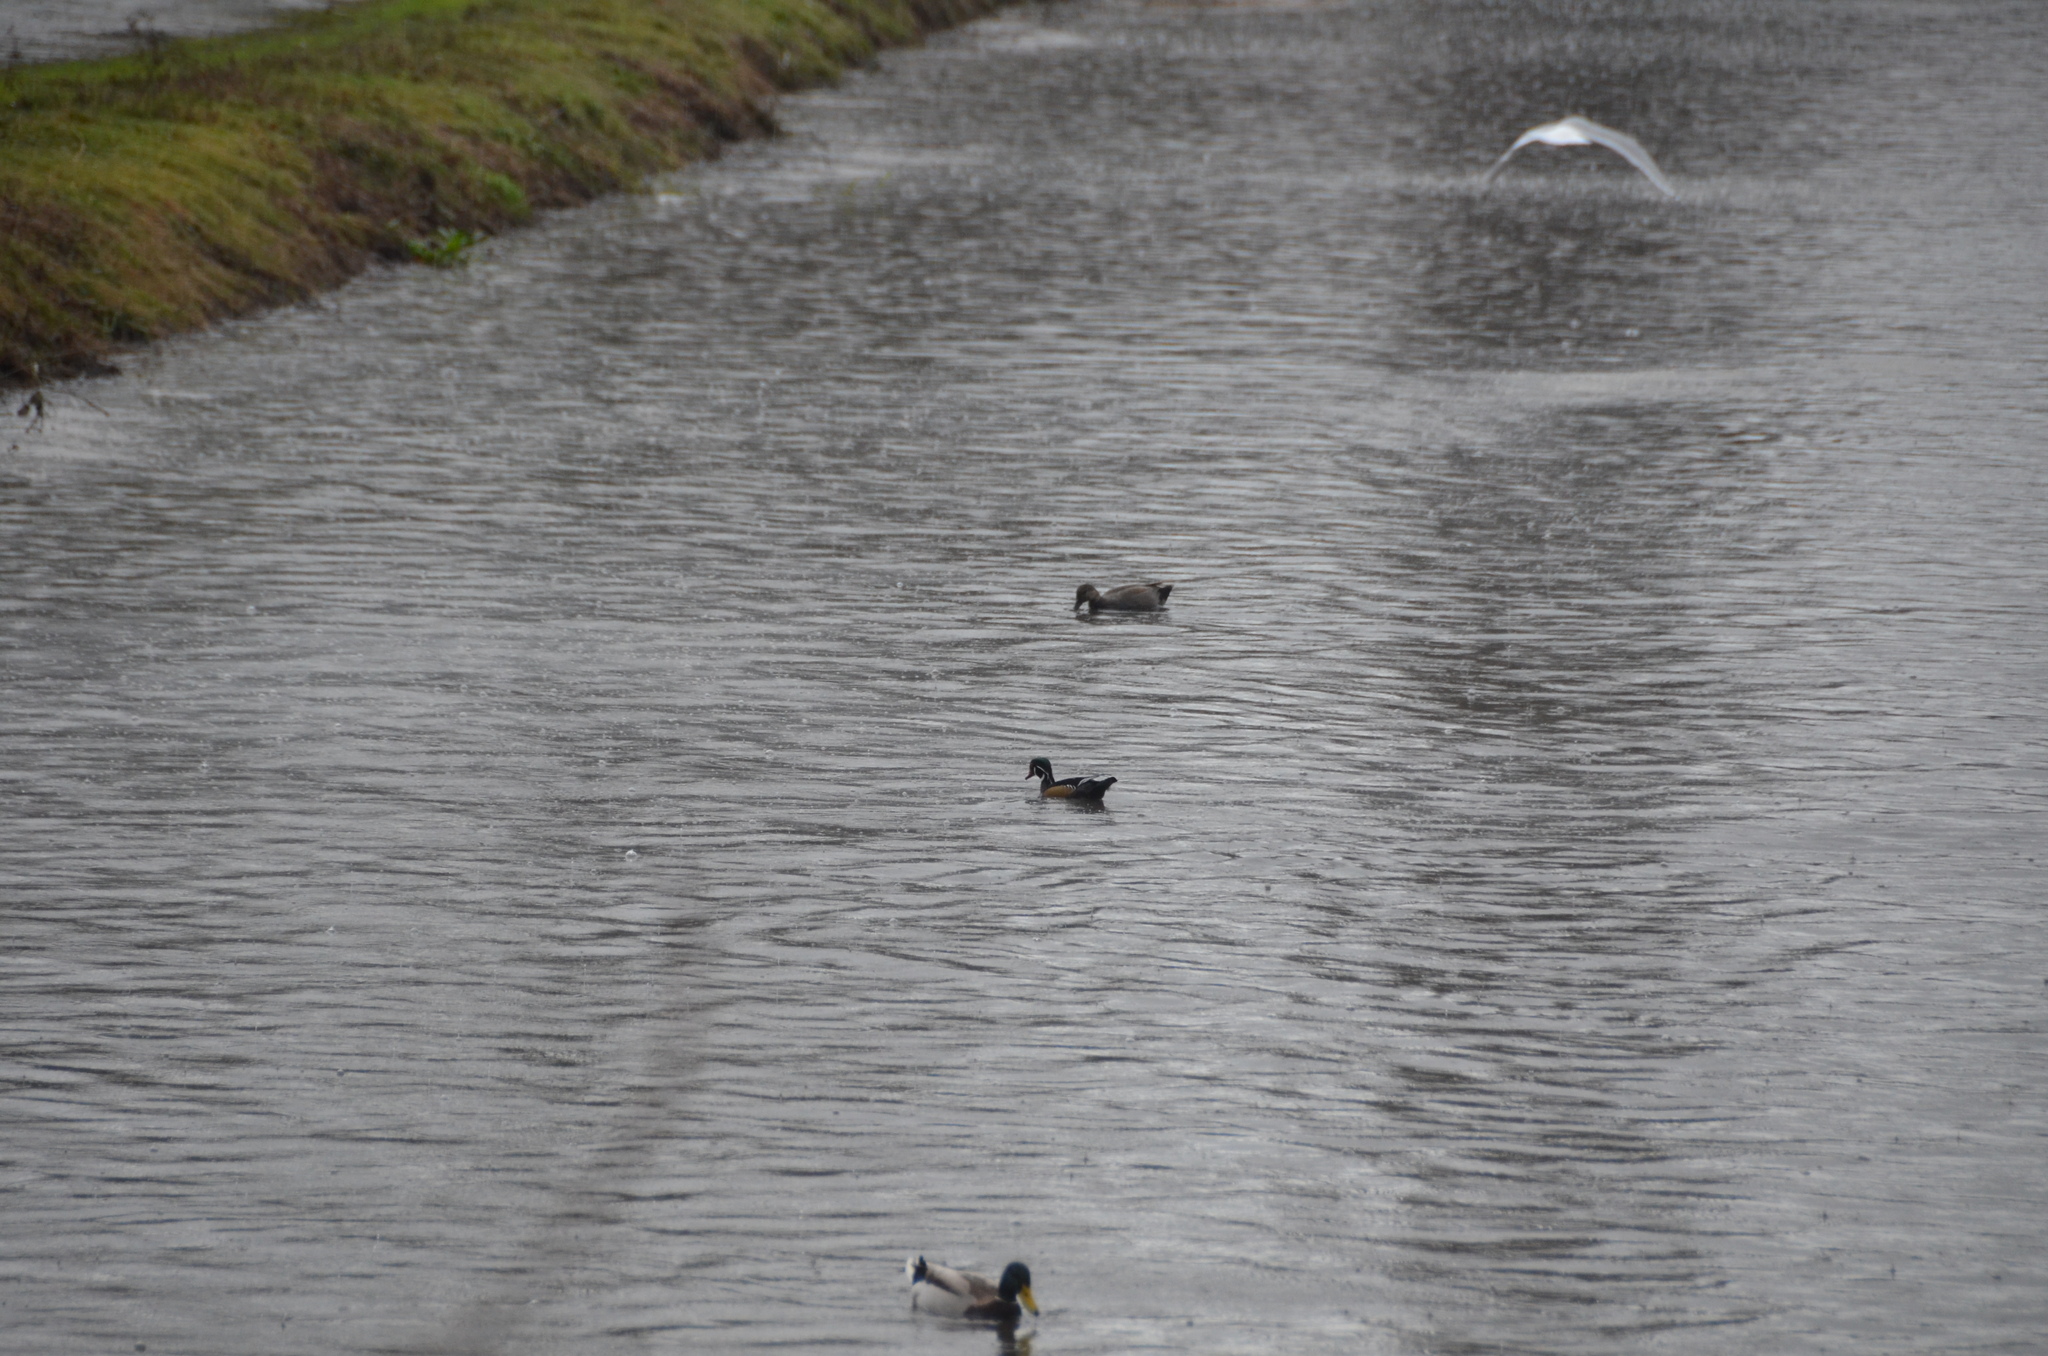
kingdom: Animalia
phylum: Chordata
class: Aves
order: Anseriformes
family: Anatidae
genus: Aix
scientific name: Aix sponsa
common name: Wood duck
